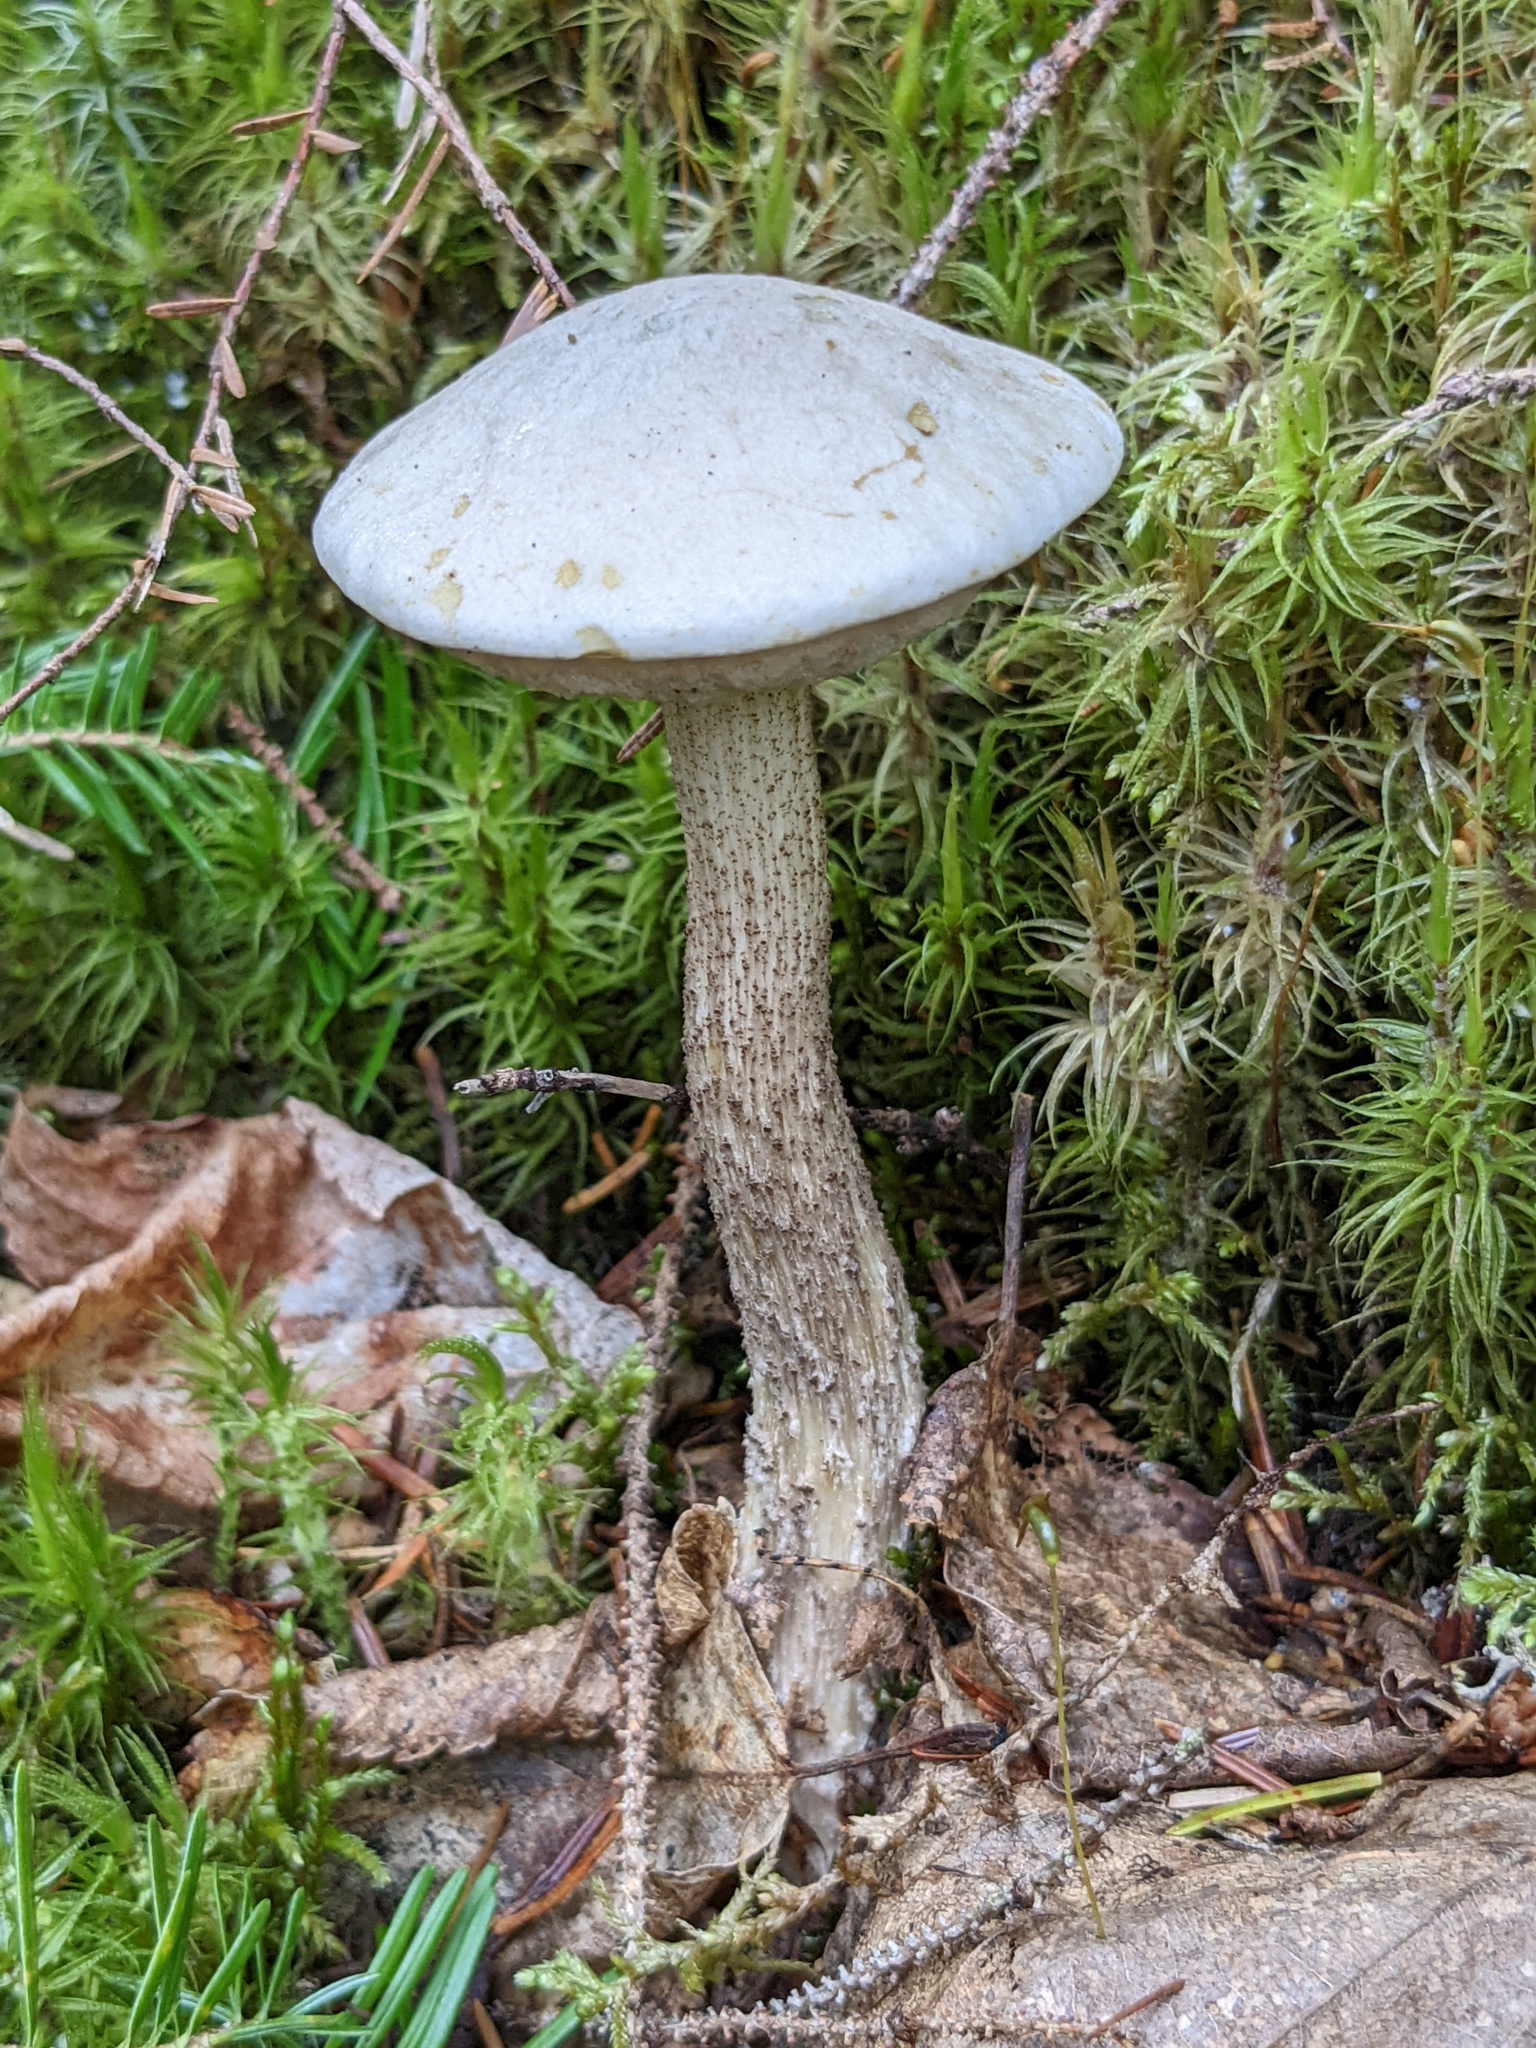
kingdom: Fungi
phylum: Basidiomycota
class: Agaricomycetes
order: Boletales
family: Boletaceae
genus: Leccinum
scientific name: Leccinum holopus
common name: Ghost bolete
